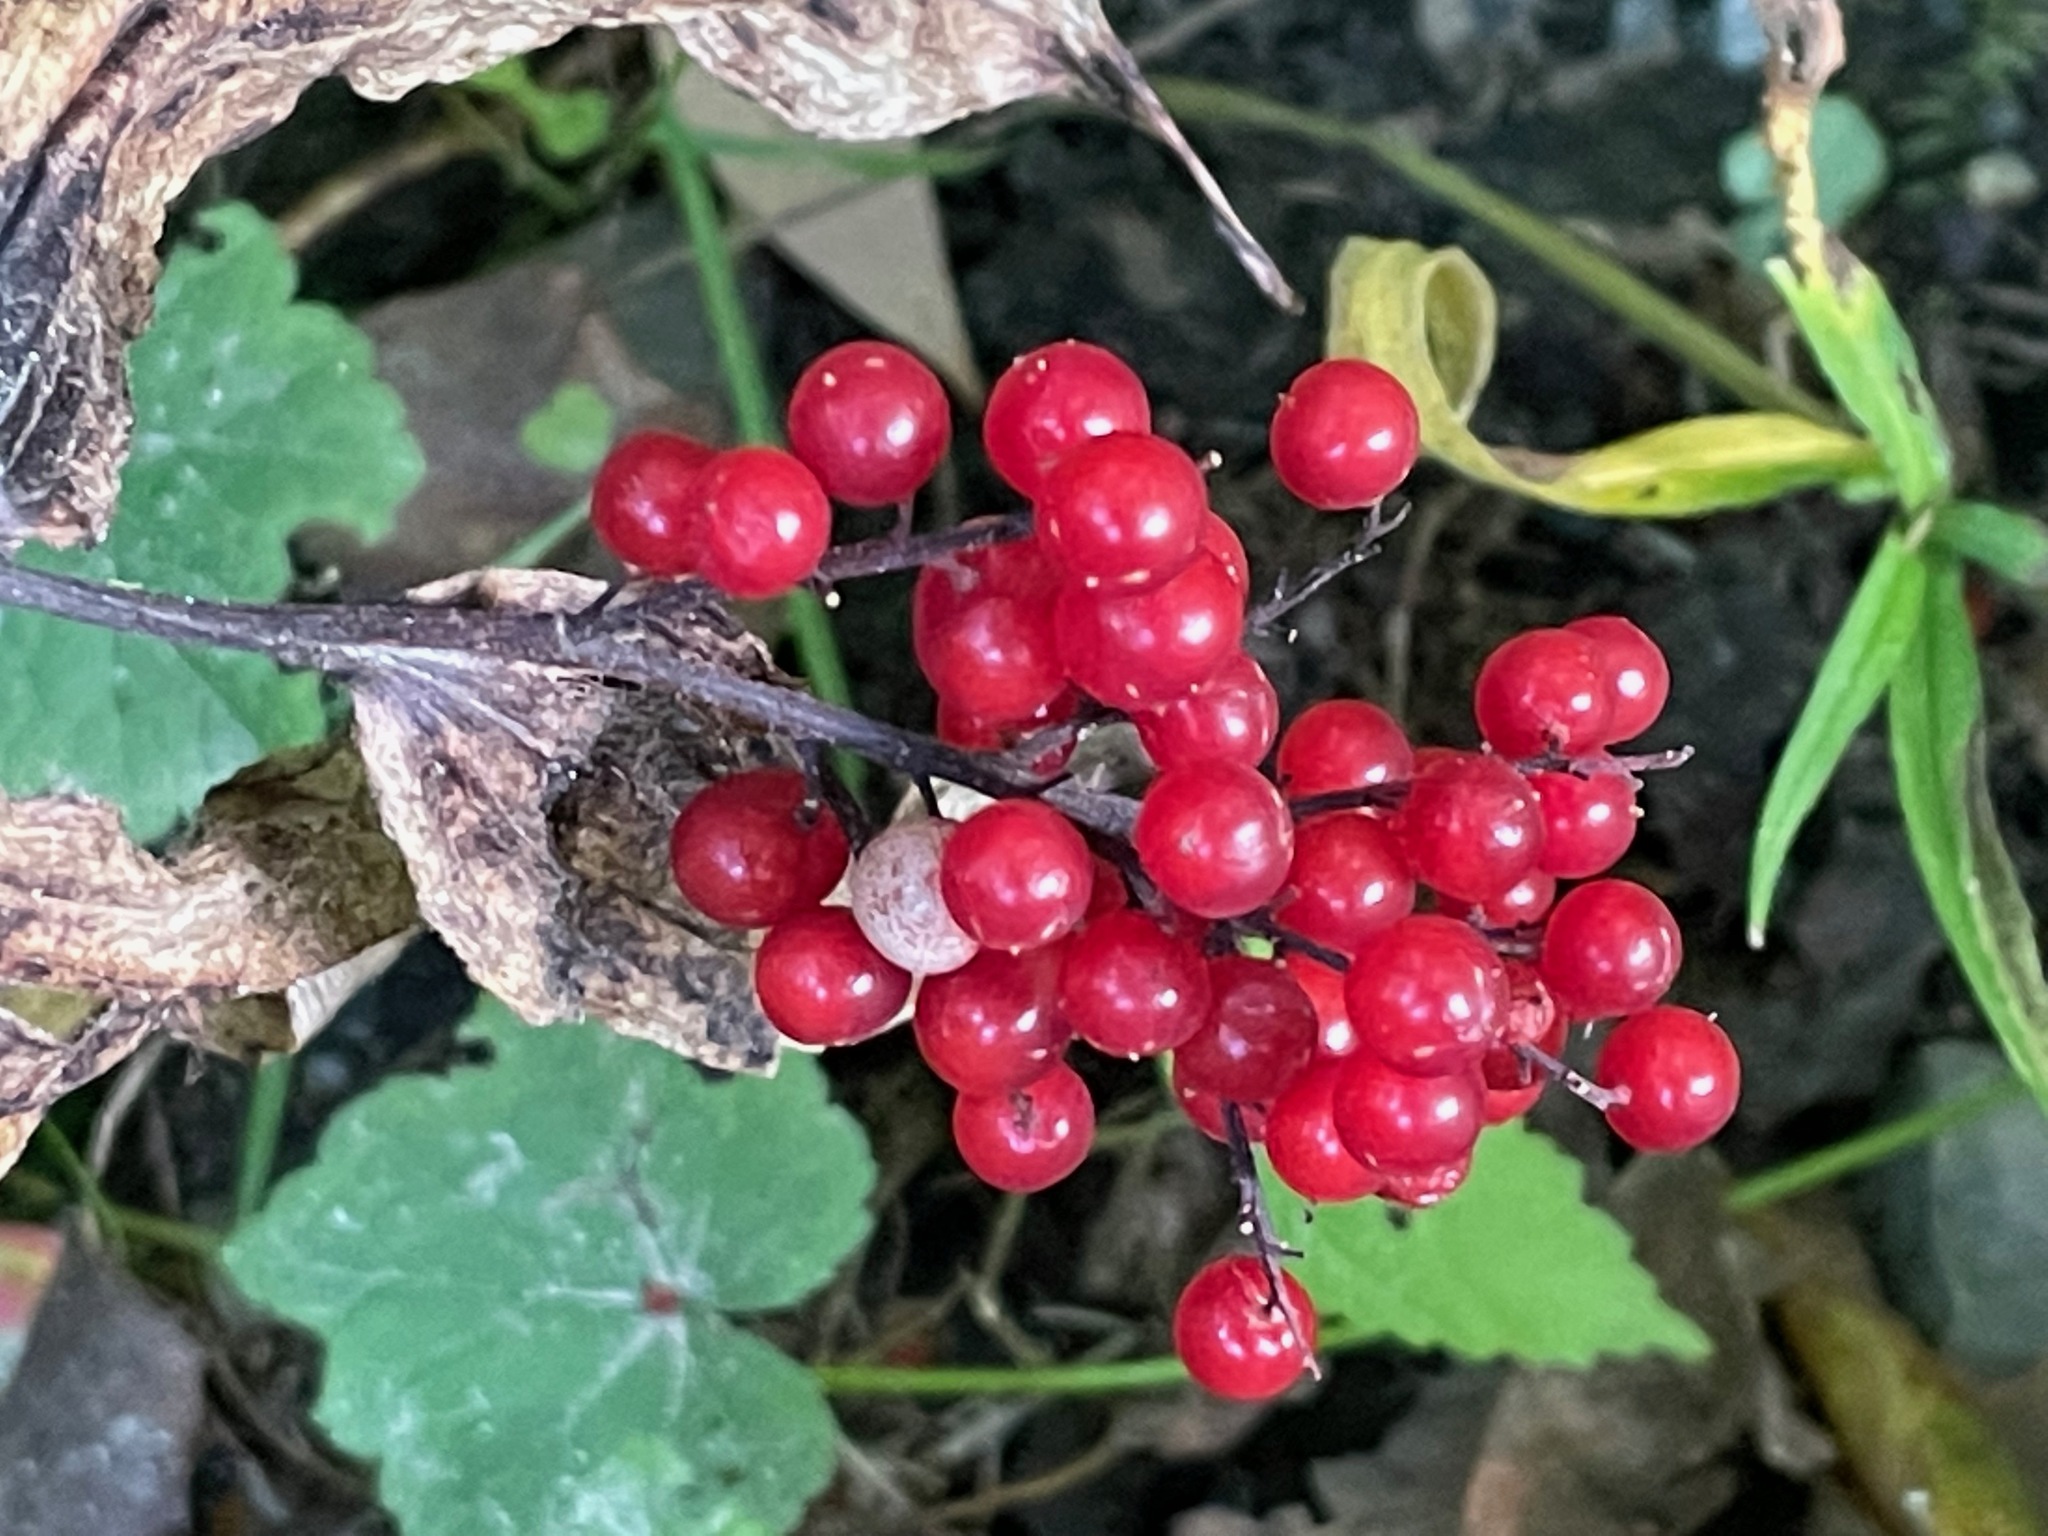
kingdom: Plantae
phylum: Tracheophyta
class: Liliopsida
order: Asparagales
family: Asparagaceae
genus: Maianthemum
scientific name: Maianthemum racemosum
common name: False spikenard
